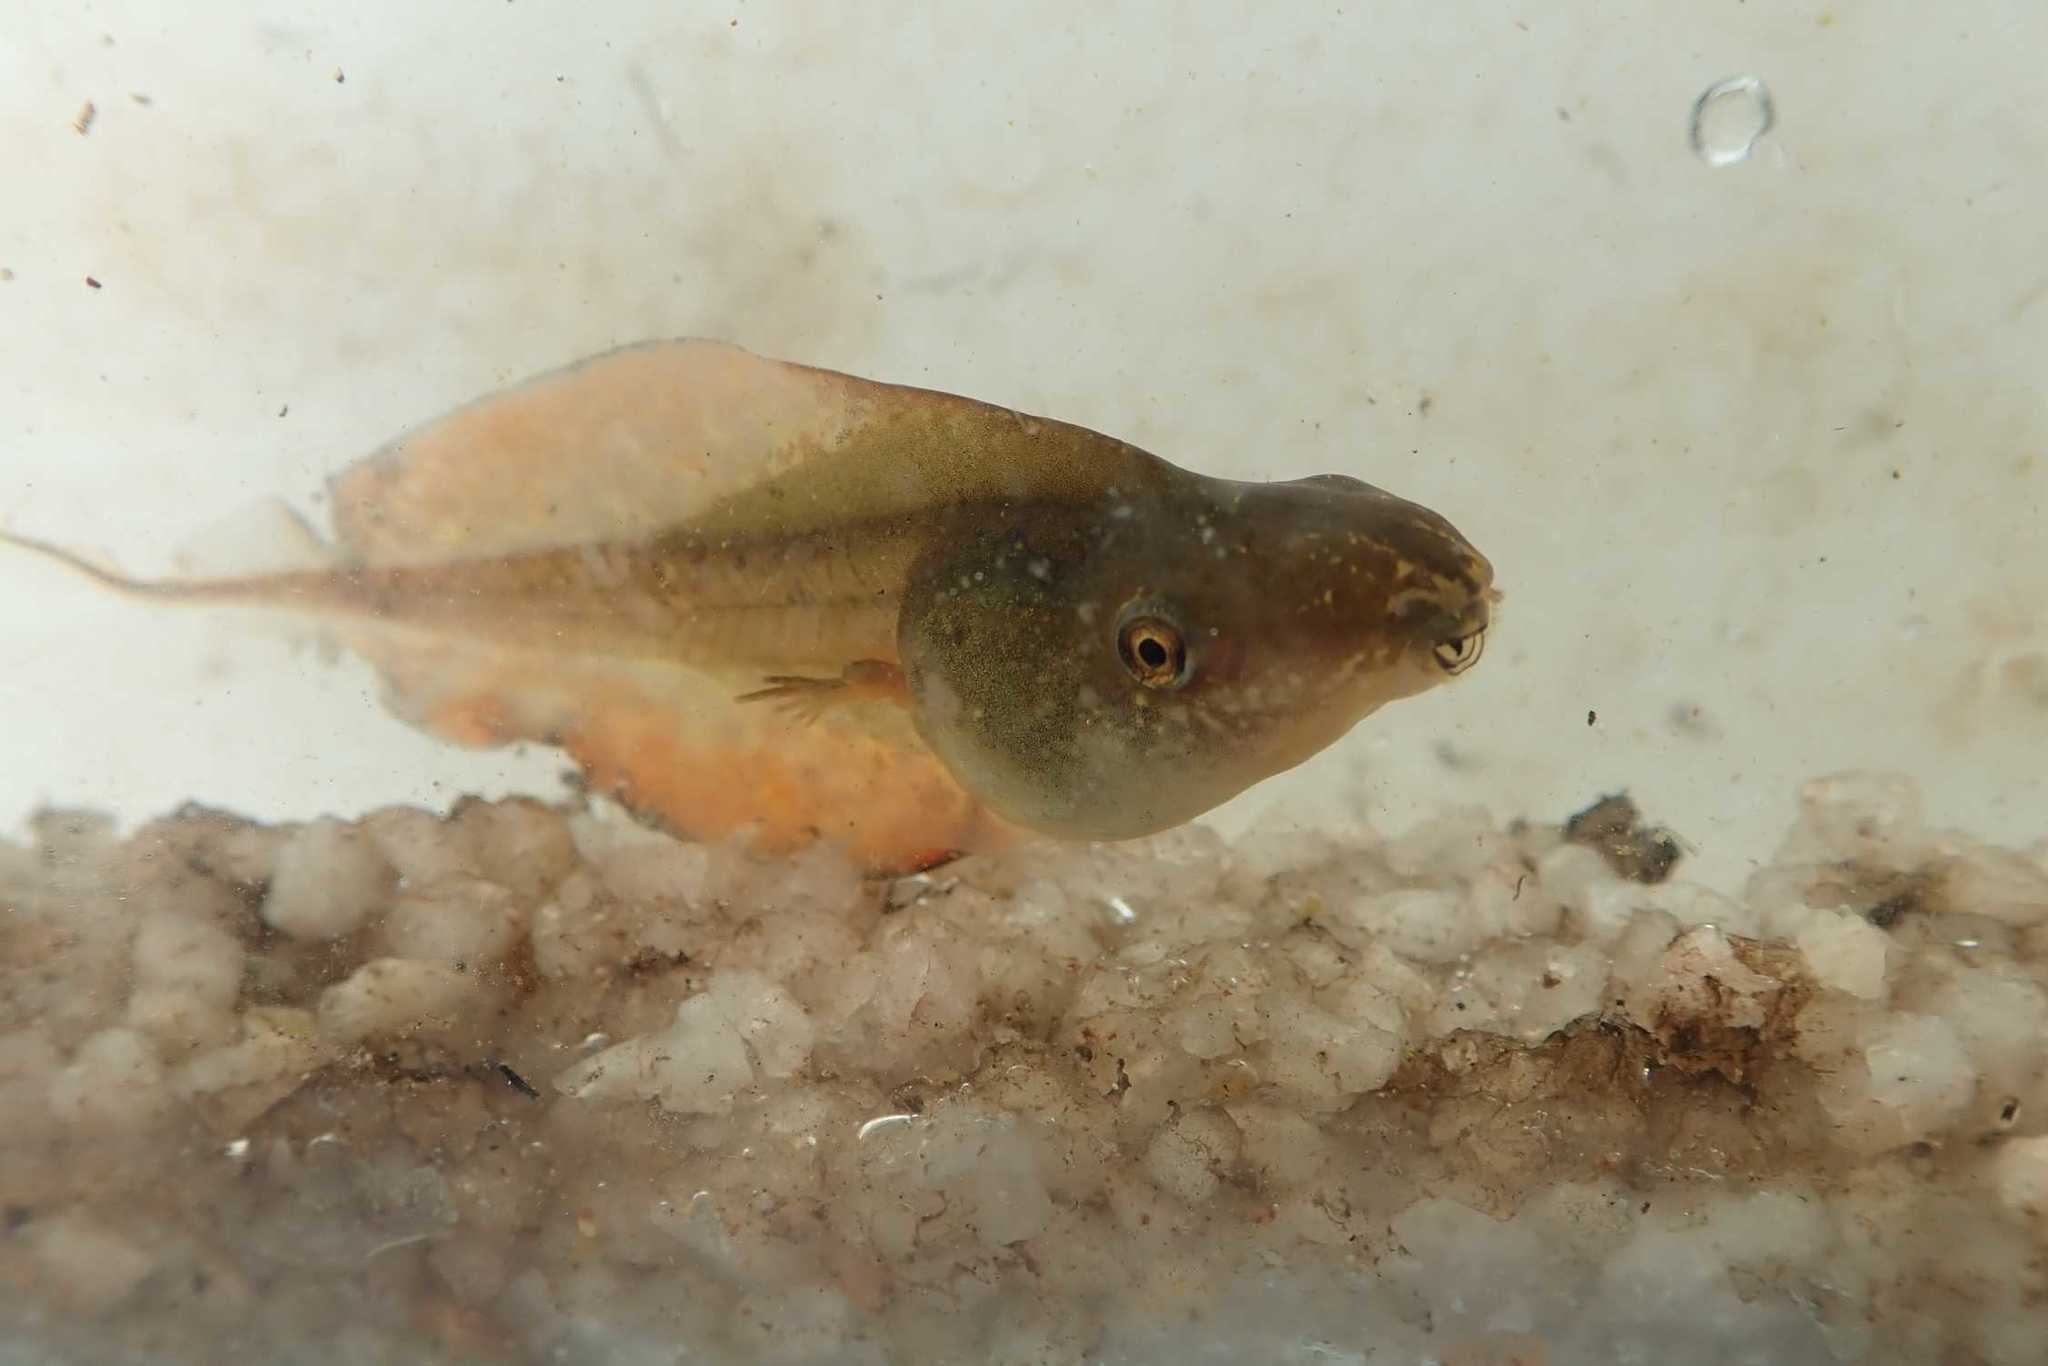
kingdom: Animalia
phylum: Chordata
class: Amphibia
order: Anura
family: Hyperoliidae
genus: Kassina
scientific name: Kassina senegalensis
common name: Senegal land frog
